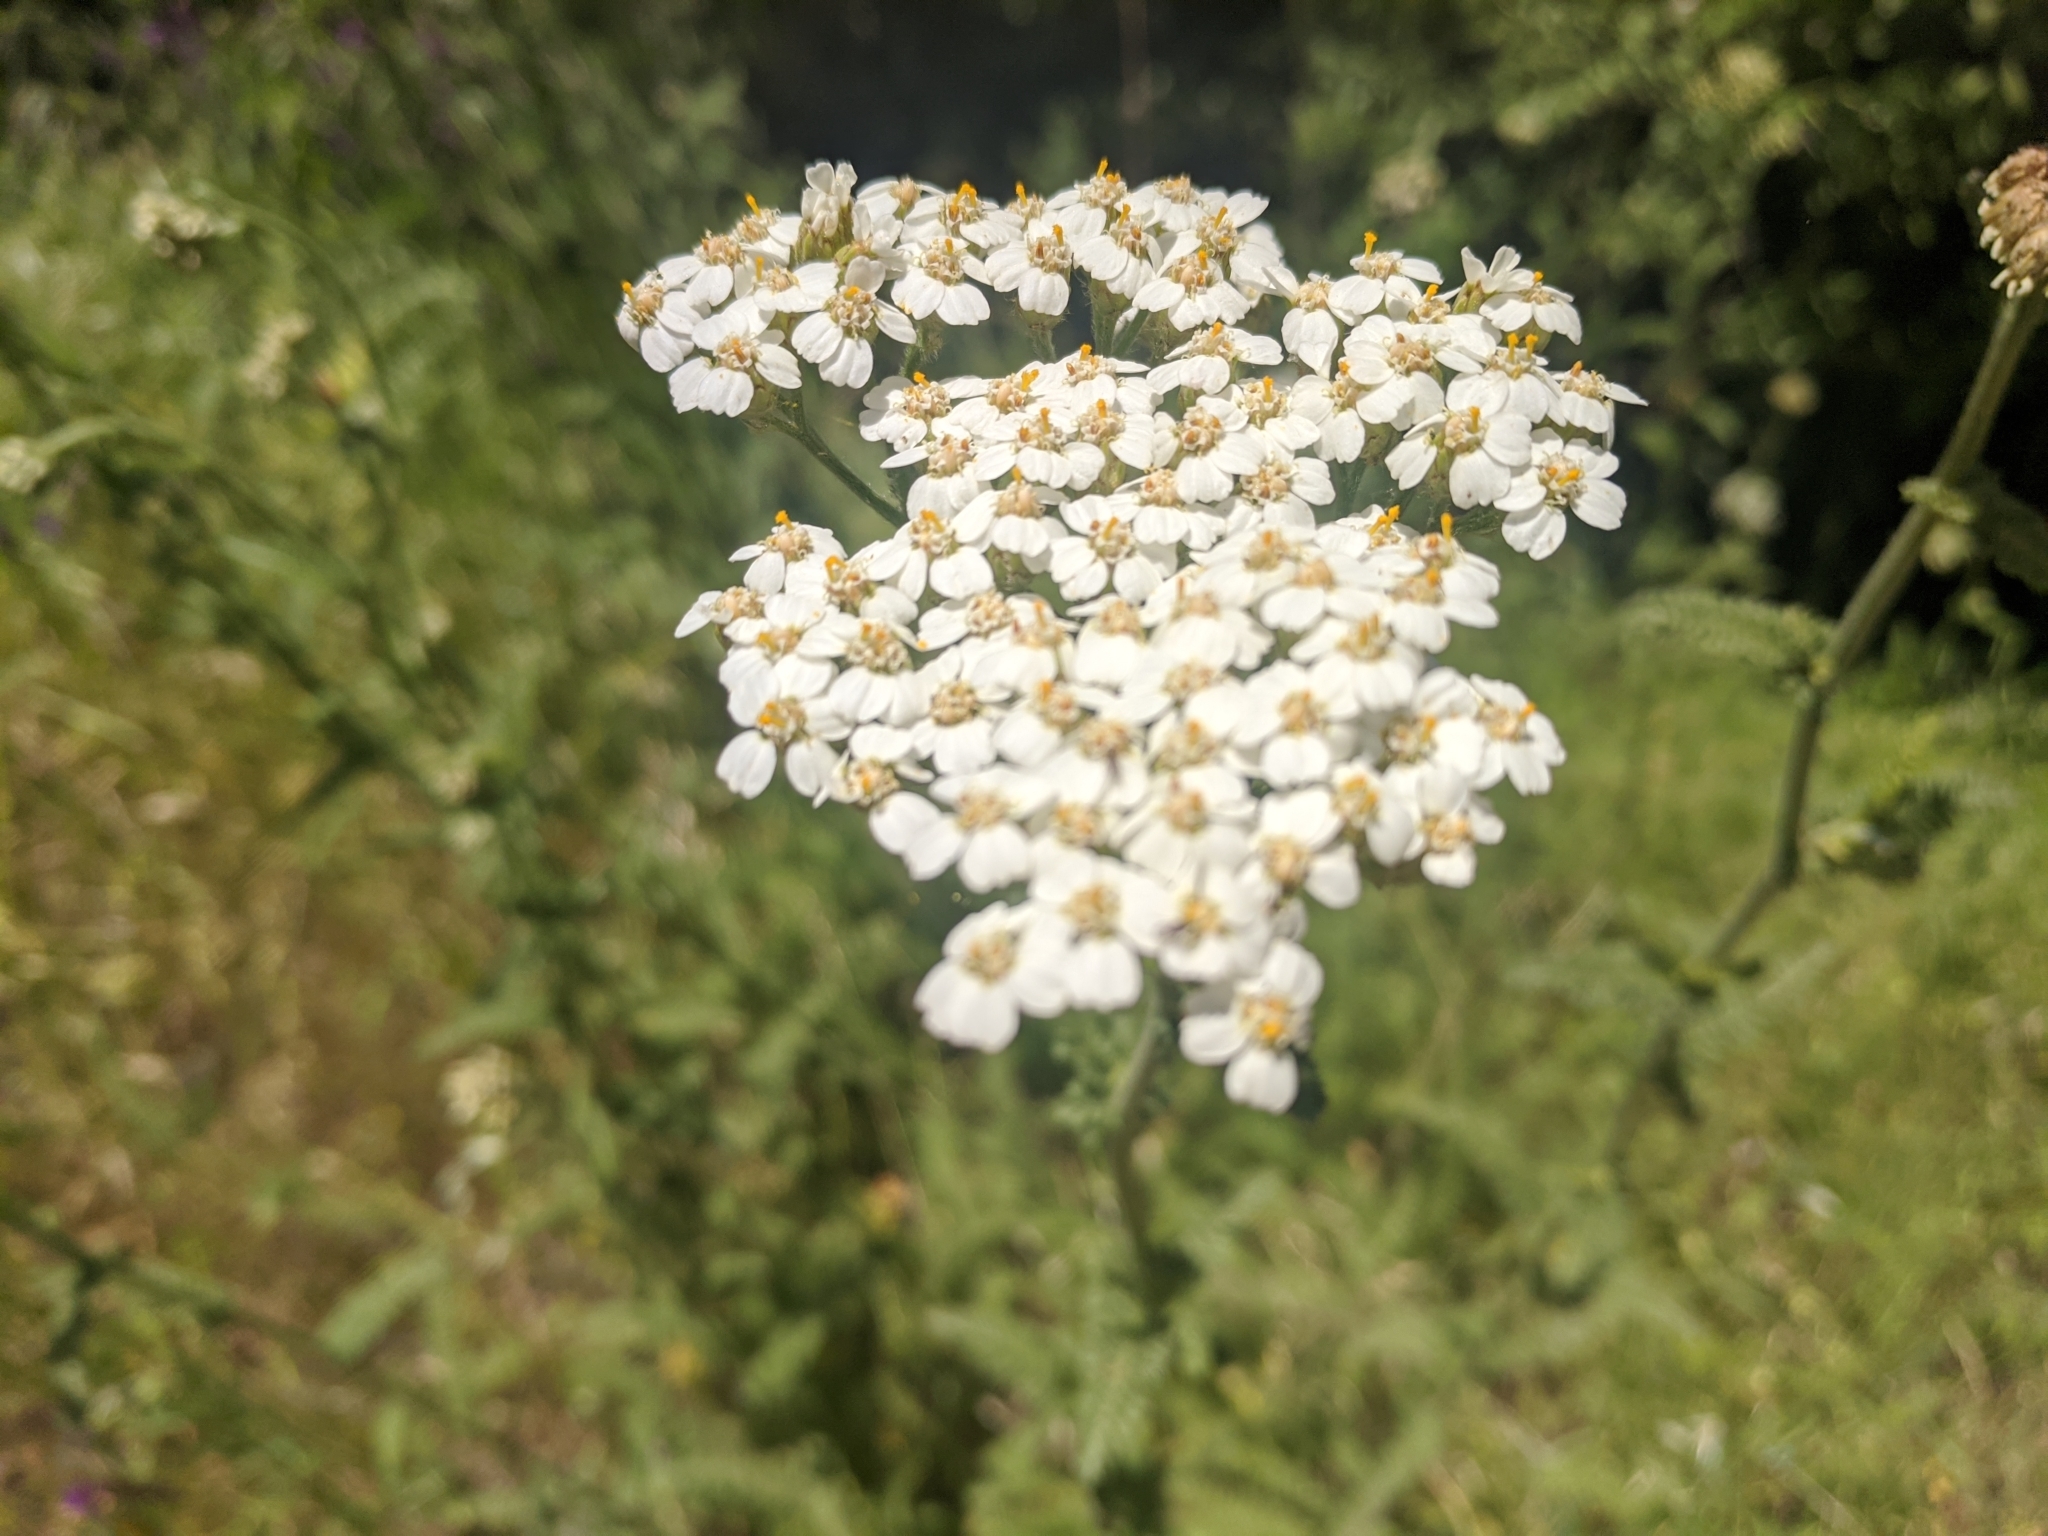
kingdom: Plantae
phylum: Tracheophyta
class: Magnoliopsida
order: Asterales
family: Asteraceae
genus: Achillea
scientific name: Achillea millefolium
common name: Yarrow
